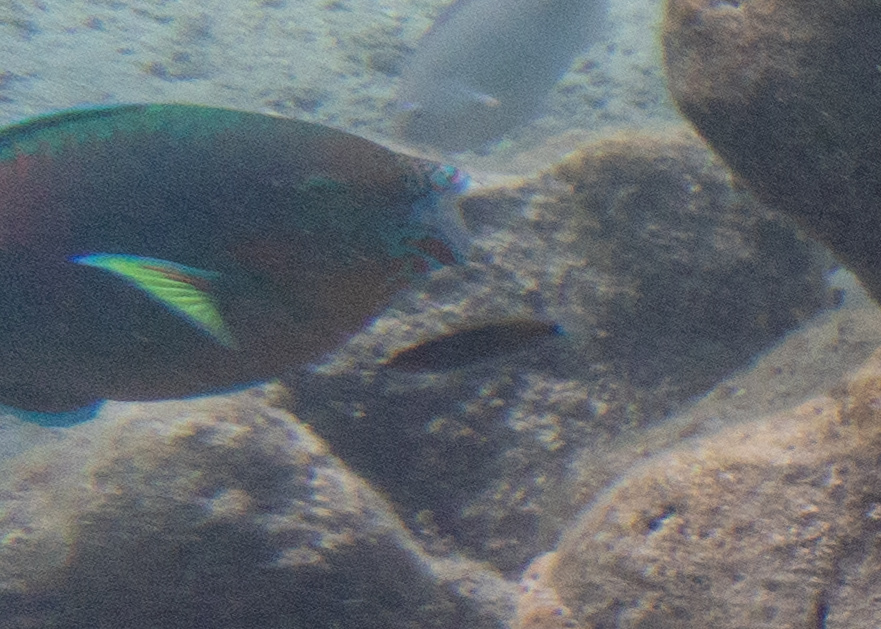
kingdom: Animalia
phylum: Chordata
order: Perciformes
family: Scaridae
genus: Scarus
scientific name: Scarus rivulatus
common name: Surf parrotfish
